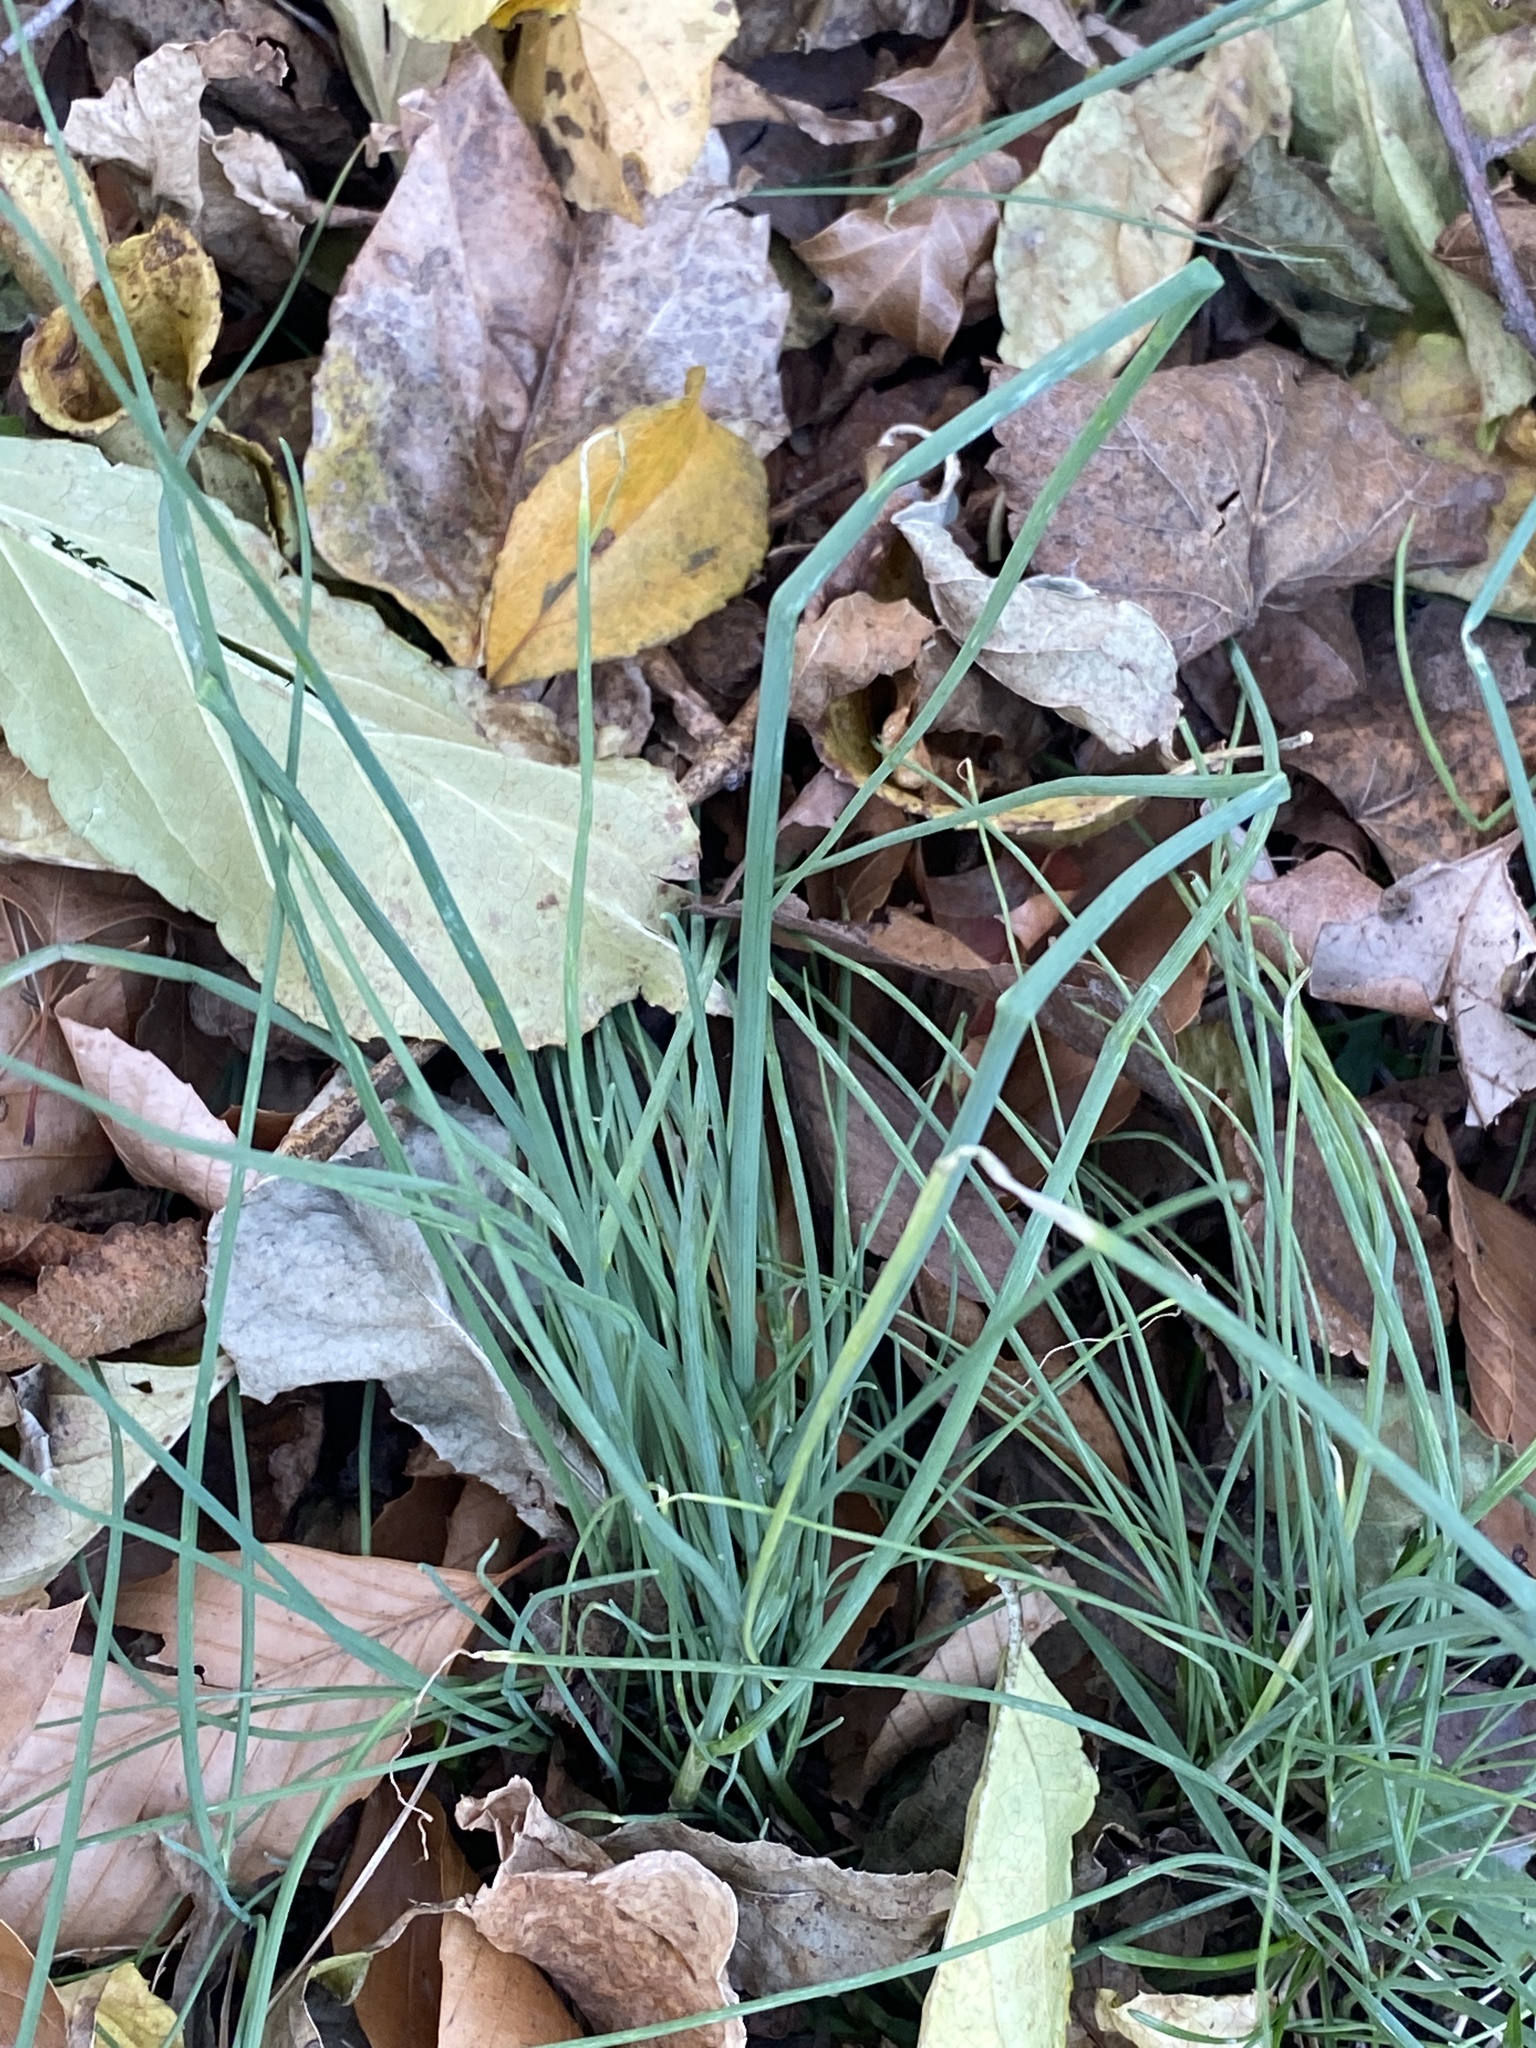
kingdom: Plantae
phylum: Tracheophyta
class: Liliopsida
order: Asparagales
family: Amaryllidaceae
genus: Allium
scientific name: Allium vineale
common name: Crow garlic
